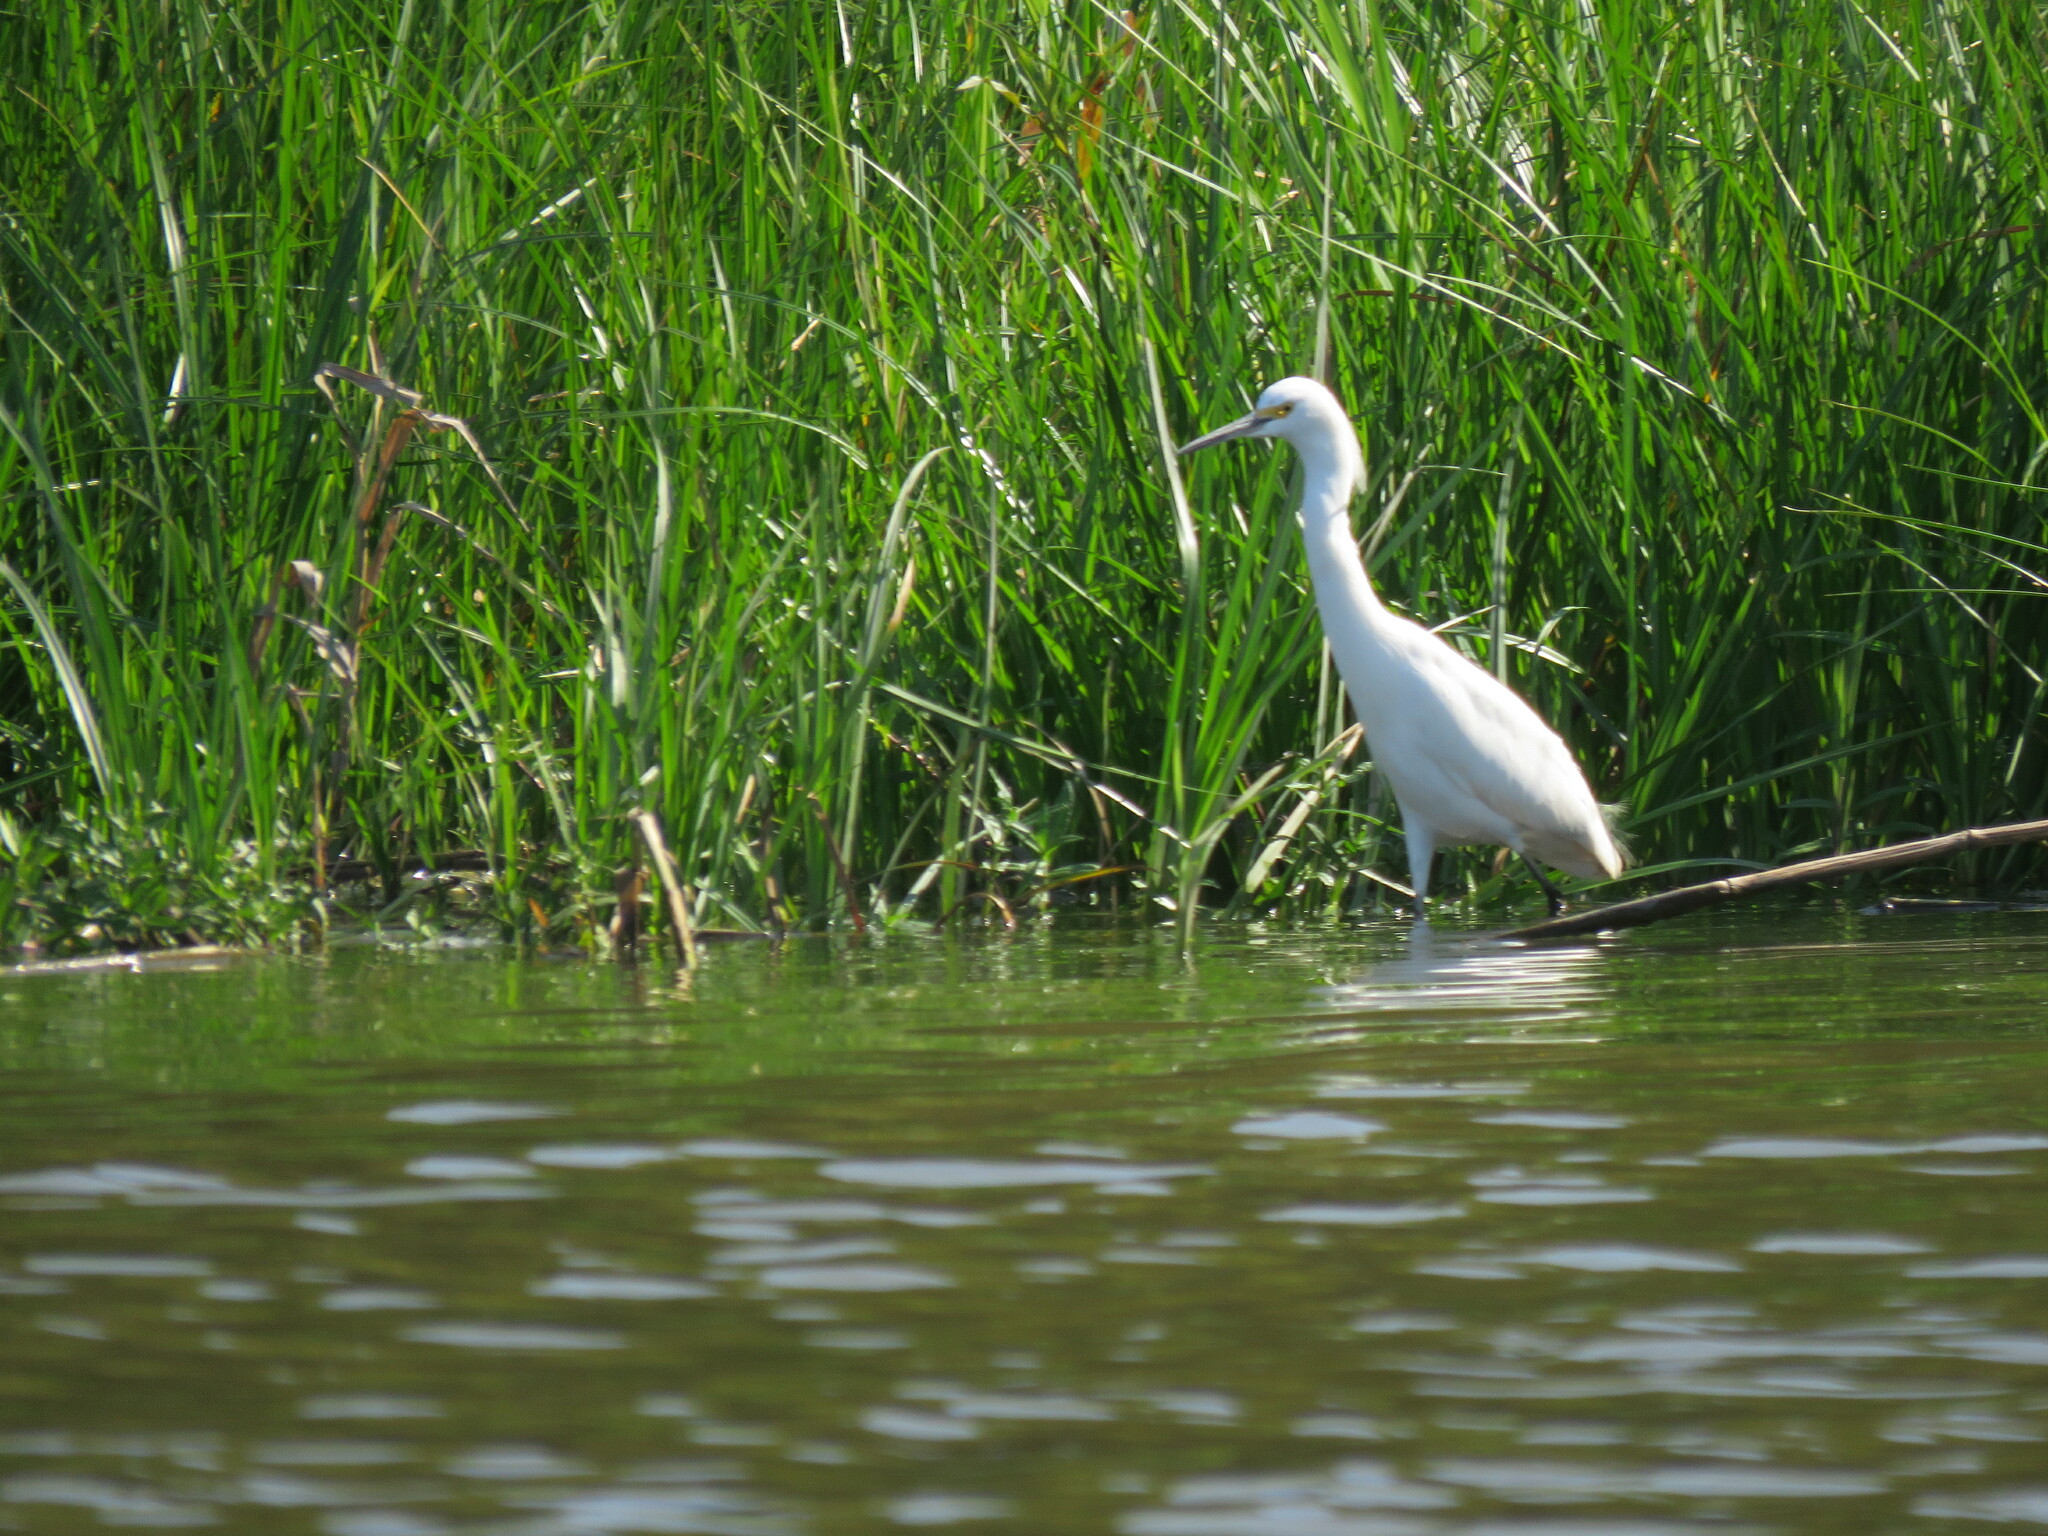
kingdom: Animalia
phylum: Chordata
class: Aves
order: Pelecaniformes
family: Ardeidae
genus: Egretta
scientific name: Egretta thula
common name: Snowy egret
